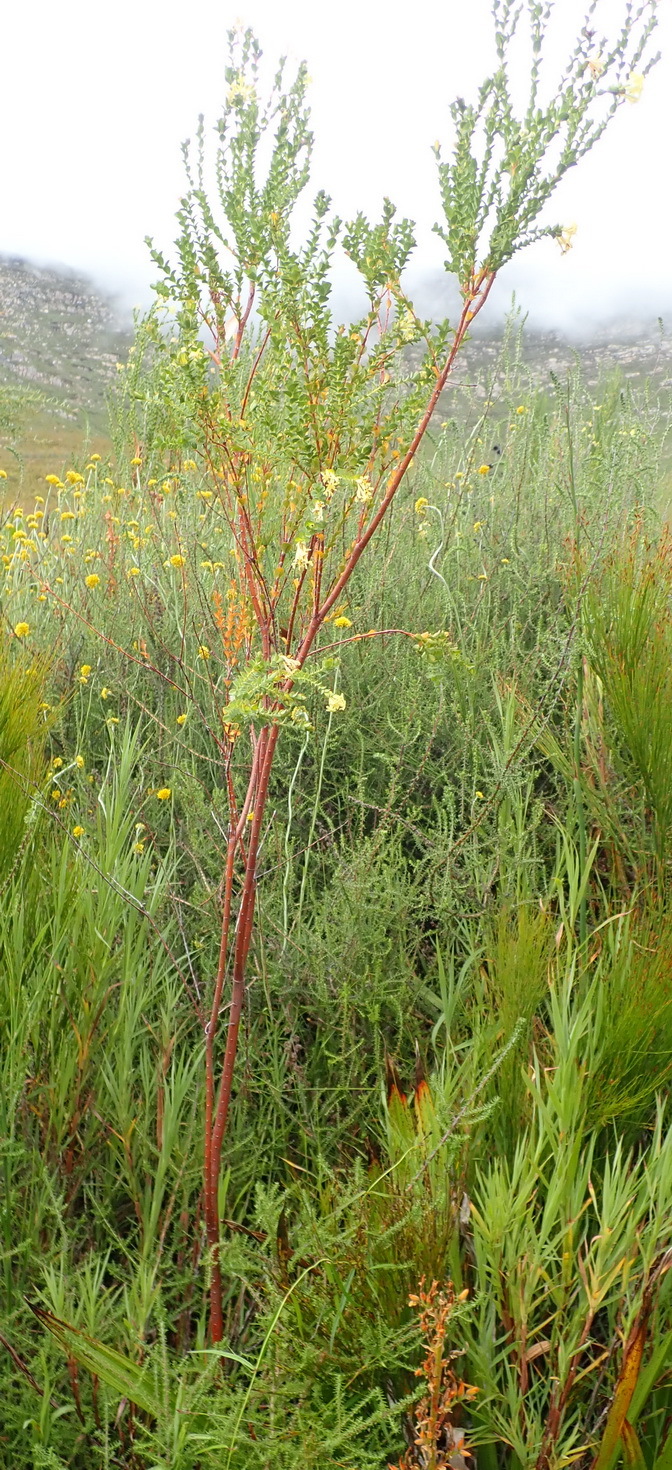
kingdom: Plantae
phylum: Tracheophyta
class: Magnoliopsida
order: Malvales
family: Thymelaeaceae
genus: Gnidia
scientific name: Gnidia oppositifolia
